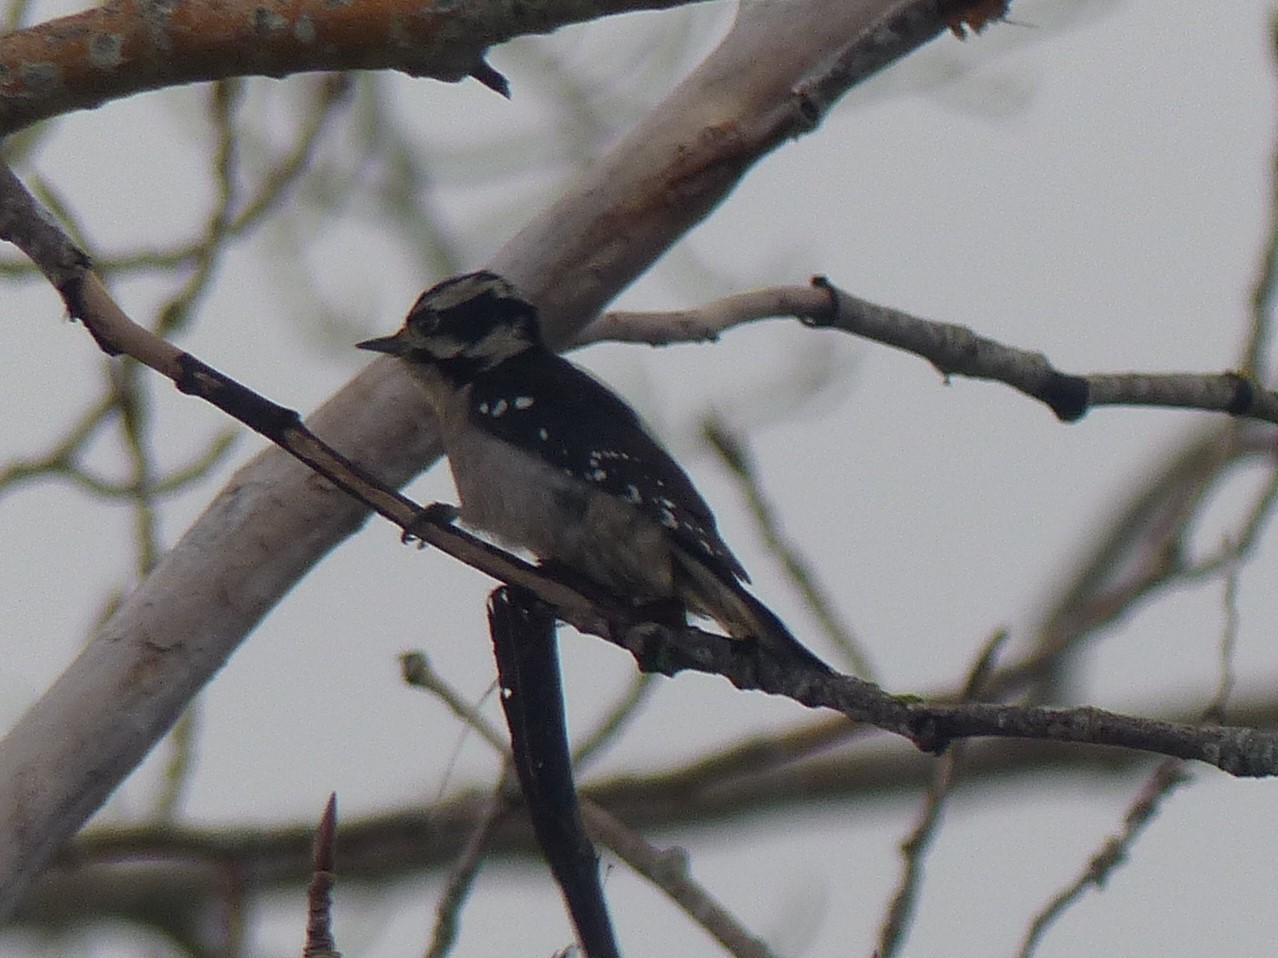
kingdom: Animalia
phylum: Chordata
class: Aves
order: Piciformes
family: Picidae
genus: Dryobates
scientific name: Dryobates pubescens
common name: Downy woodpecker
